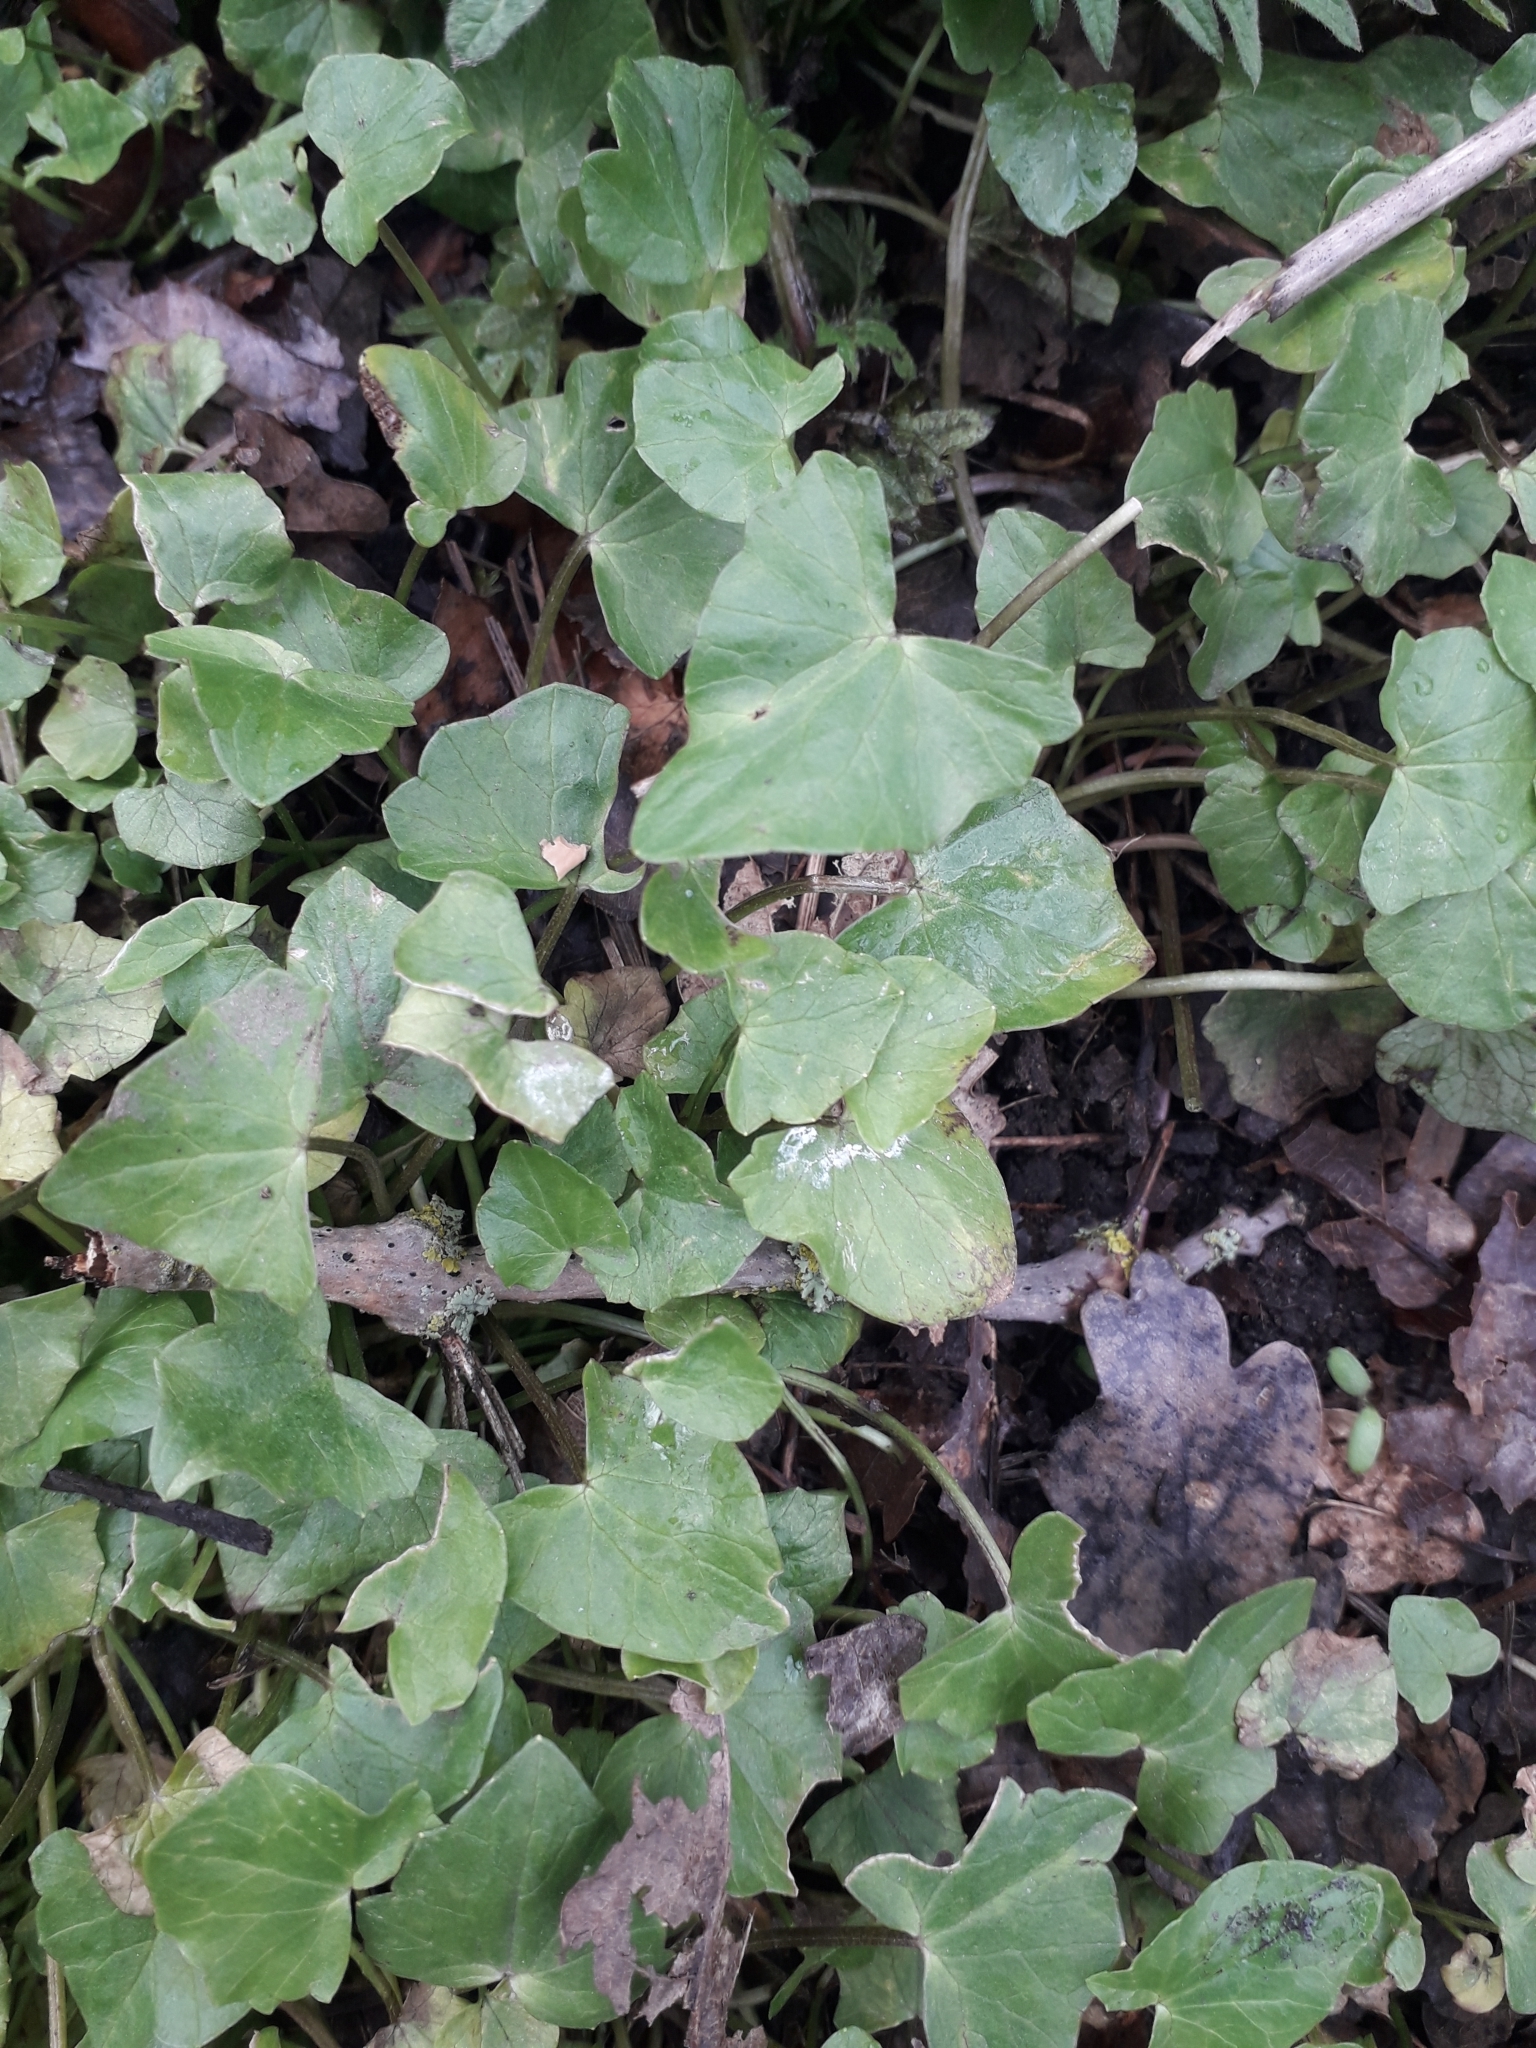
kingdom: Plantae
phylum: Tracheophyta
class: Magnoliopsida
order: Ranunculales
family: Ranunculaceae
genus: Ficaria
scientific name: Ficaria verna
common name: Lesser celandine
